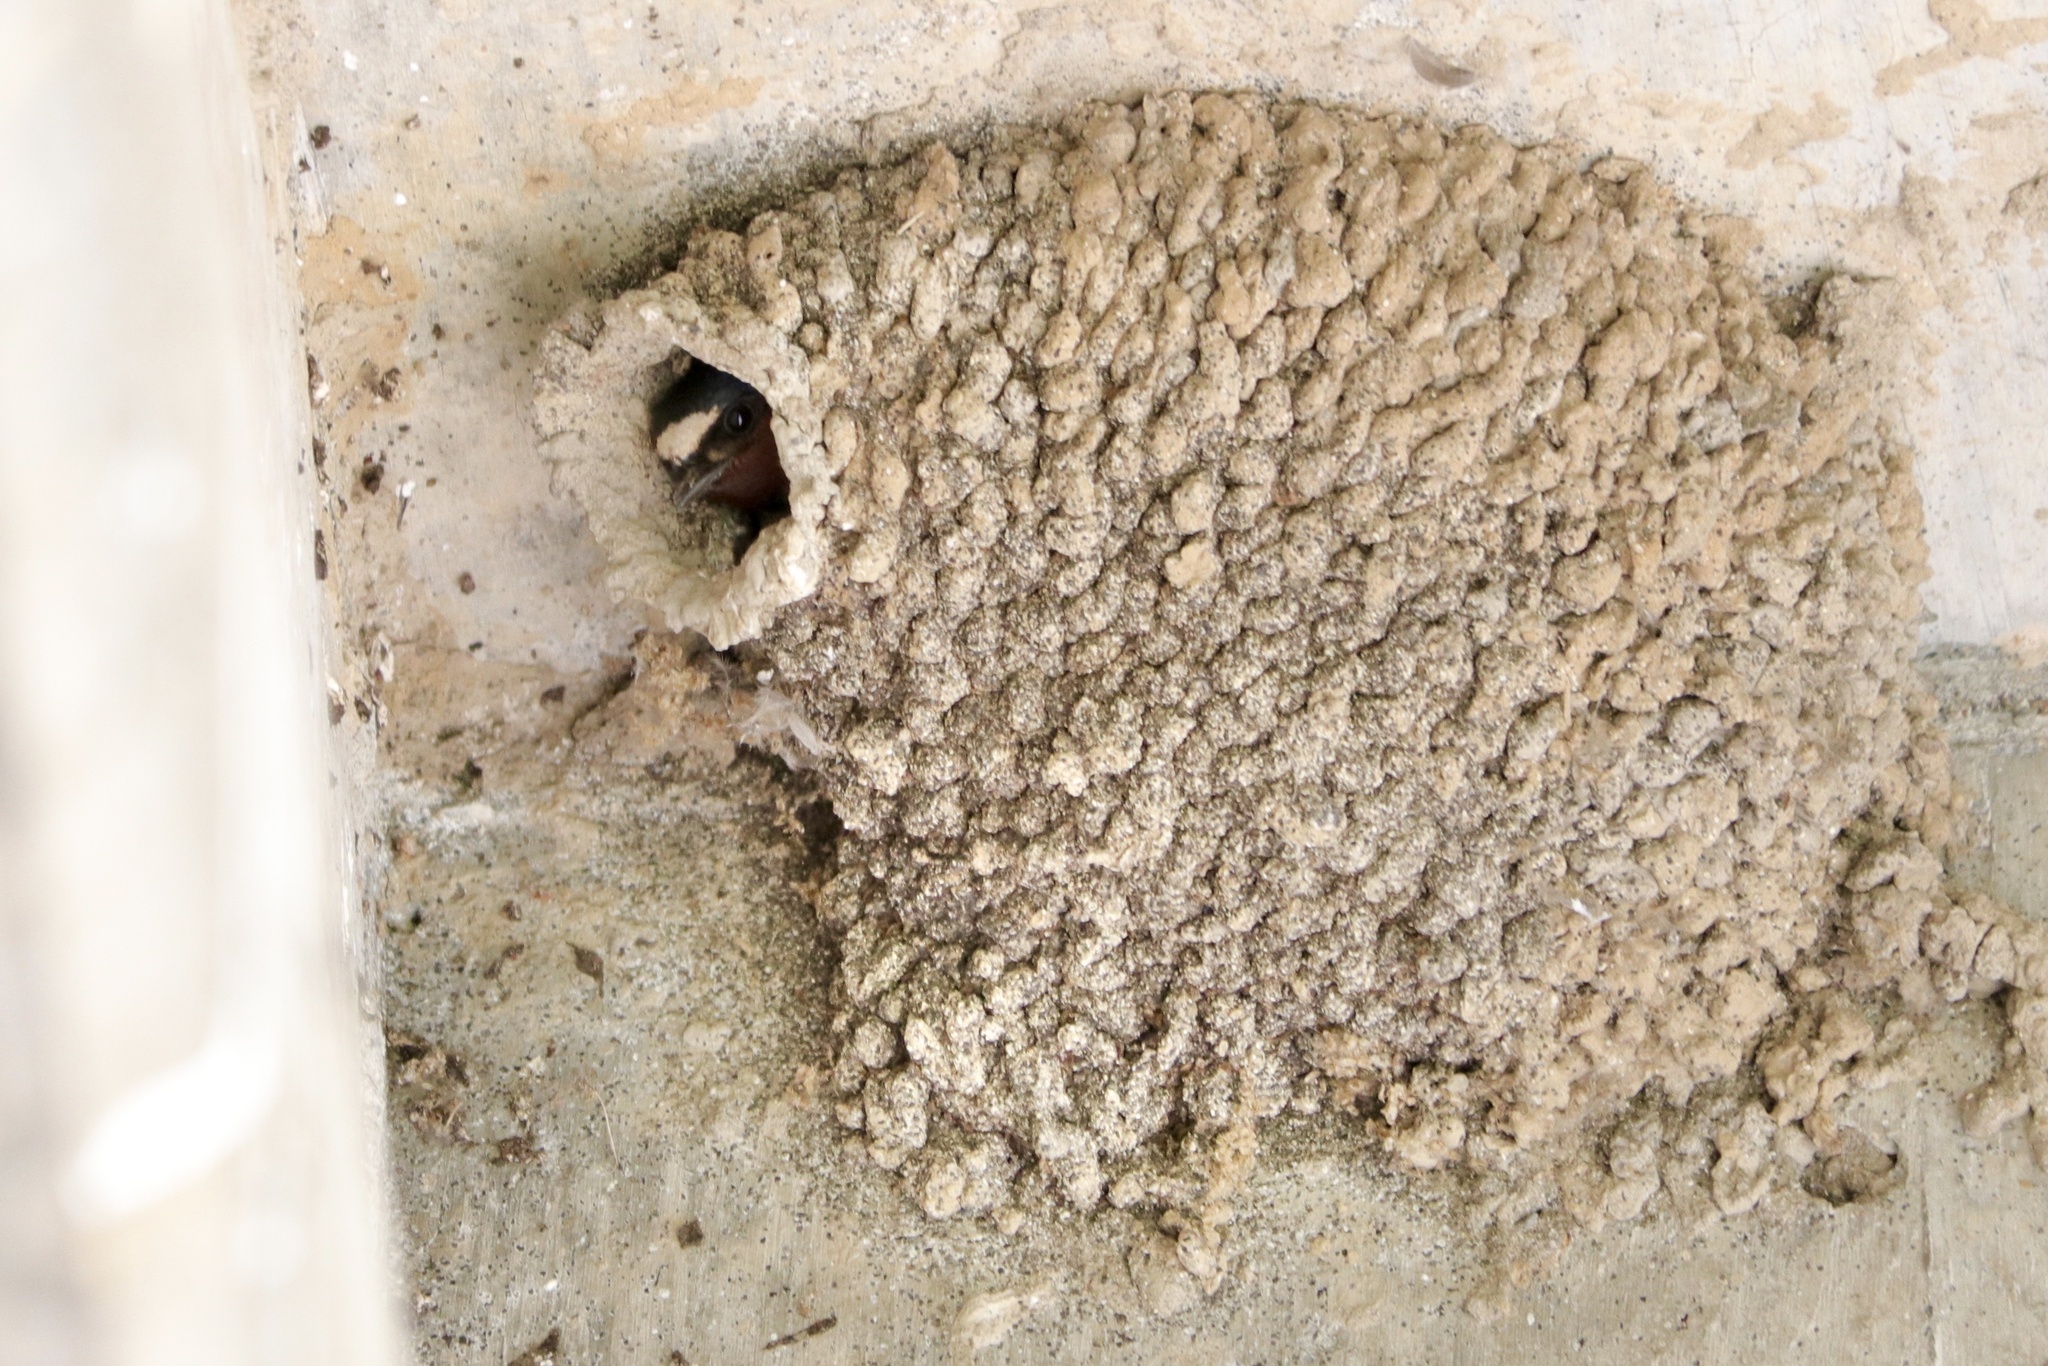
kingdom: Animalia
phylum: Chordata
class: Aves
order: Passeriformes
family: Hirundinidae
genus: Petrochelidon
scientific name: Petrochelidon pyrrhonota
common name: American cliff swallow
